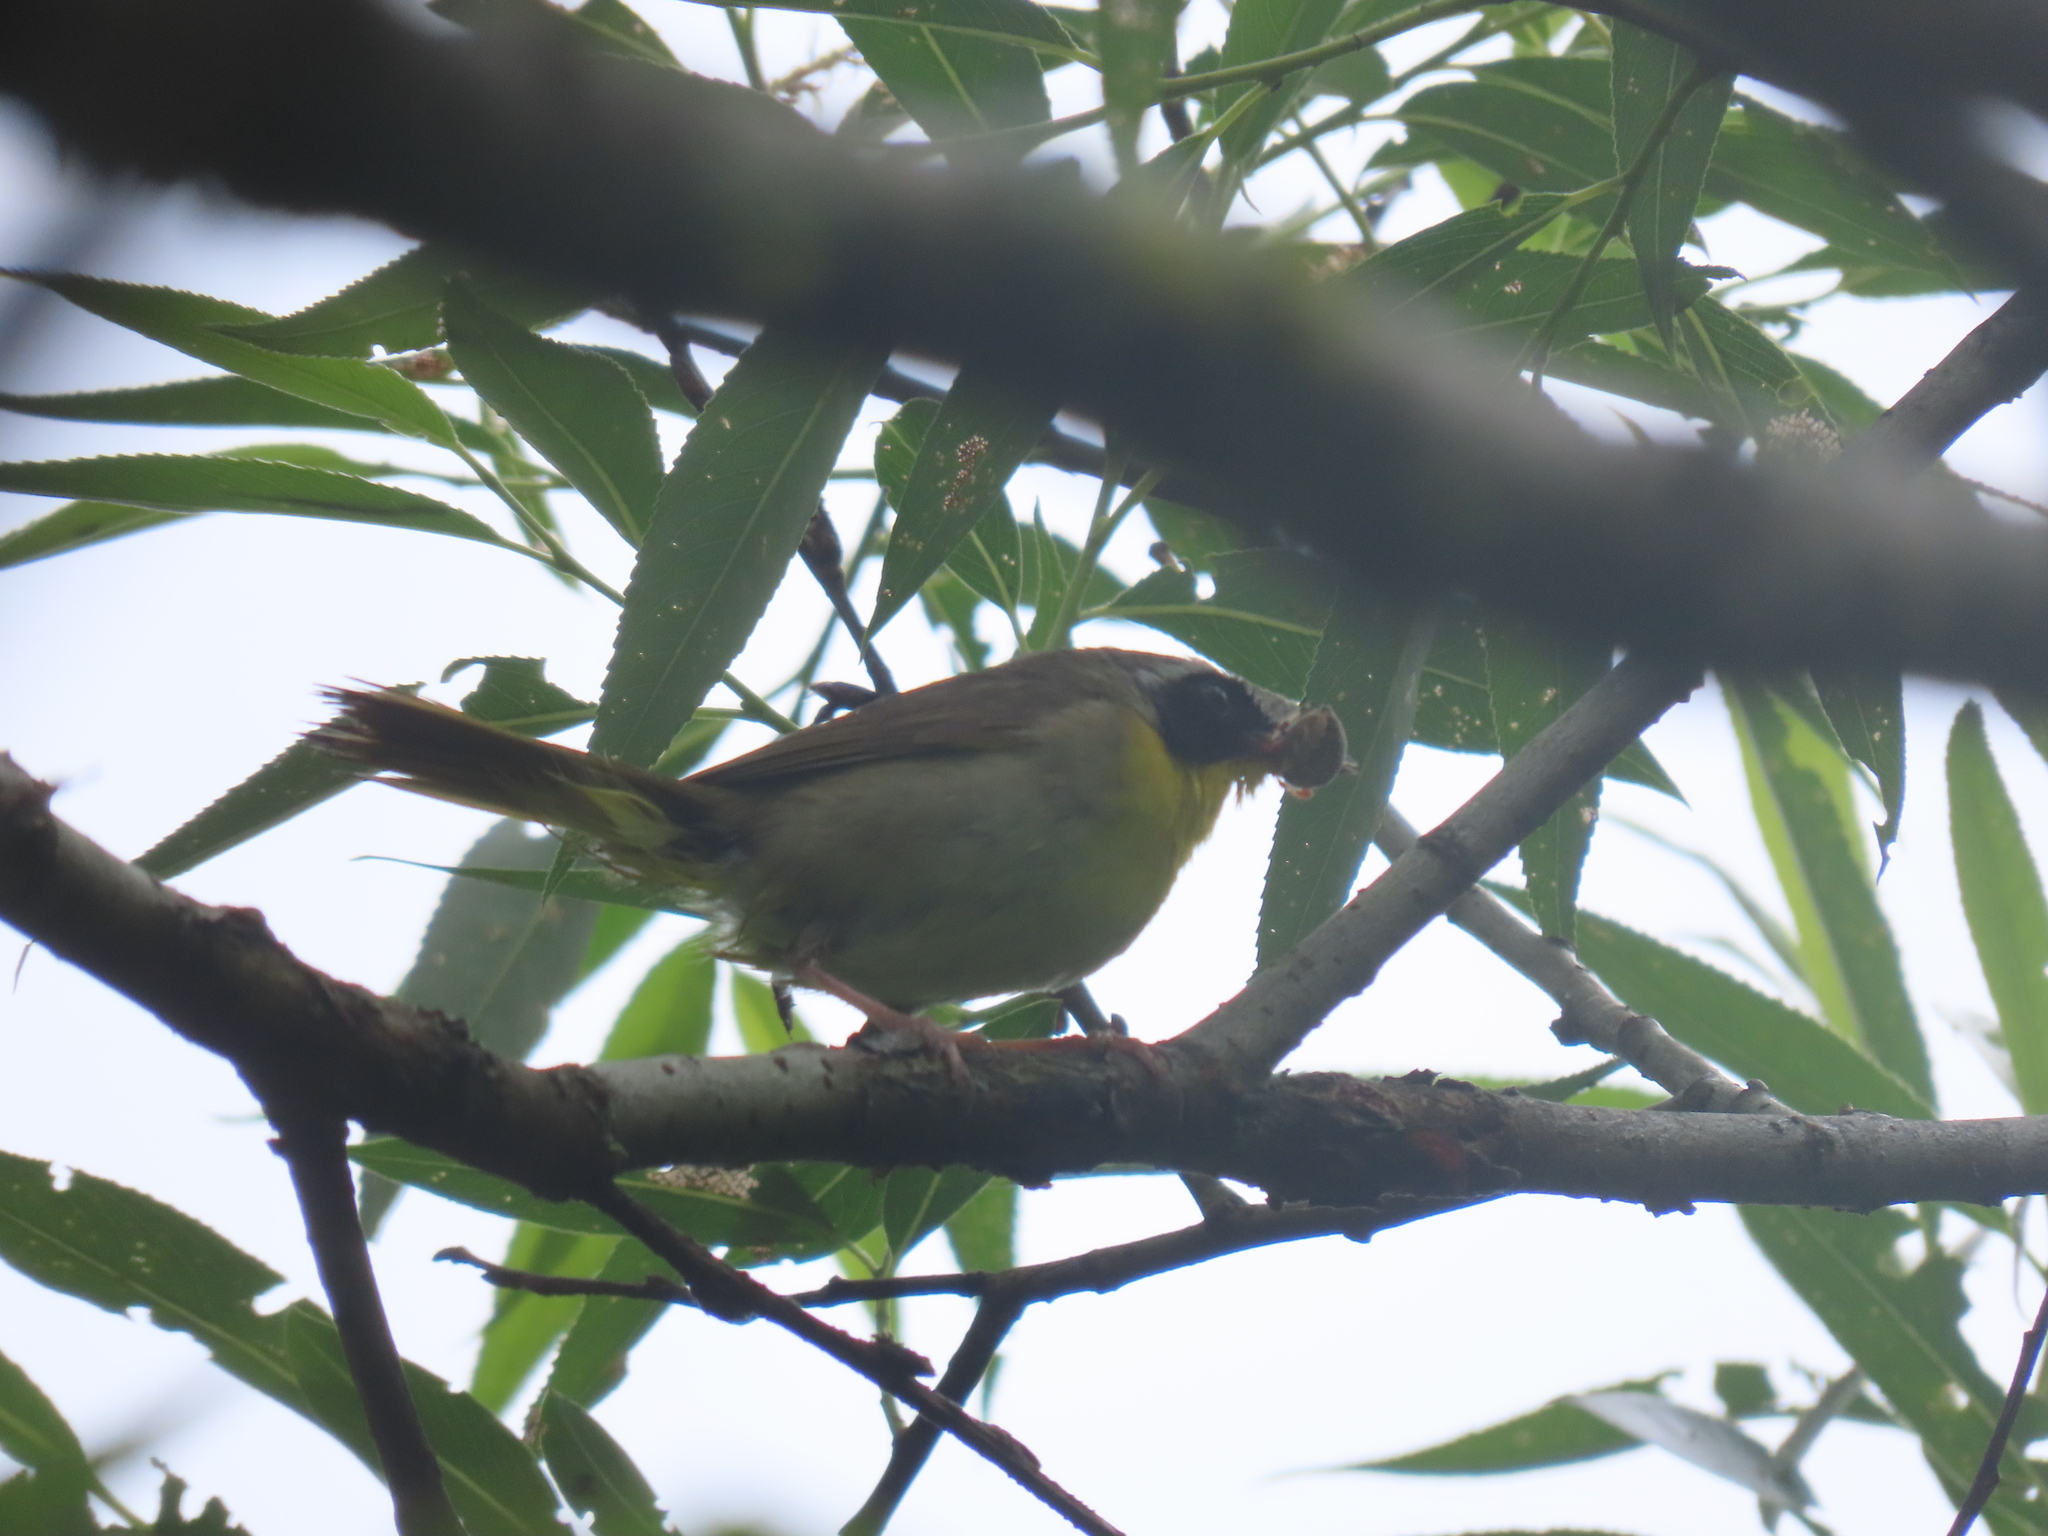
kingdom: Animalia
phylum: Chordata
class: Aves
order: Passeriformes
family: Parulidae
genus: Geothlypis
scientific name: Geothlypis trichas
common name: Common yellowthroat
